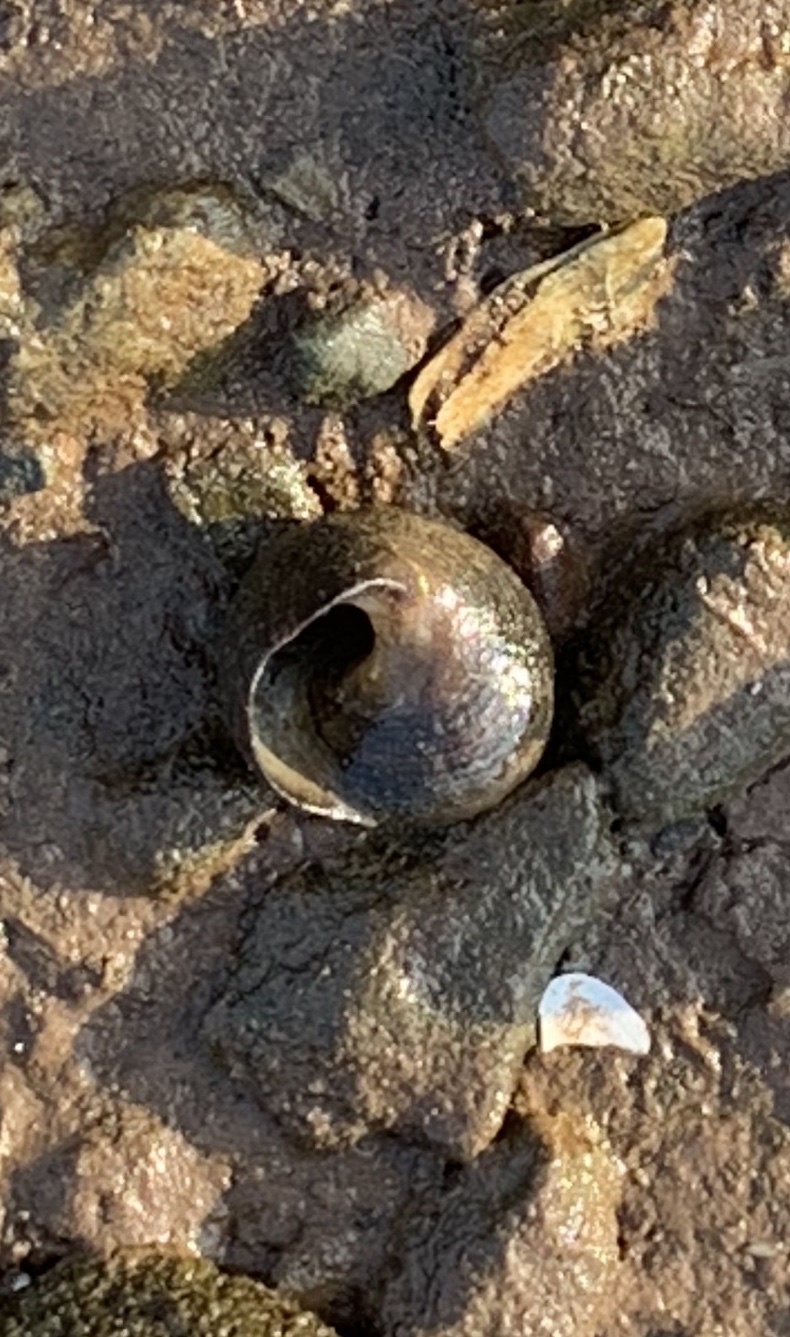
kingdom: Animalia
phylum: Mollusca
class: Gastropoda
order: Littorinimorpha
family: Littorinidae
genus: Littorina
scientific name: Littorina littorea
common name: Common periwinkle
